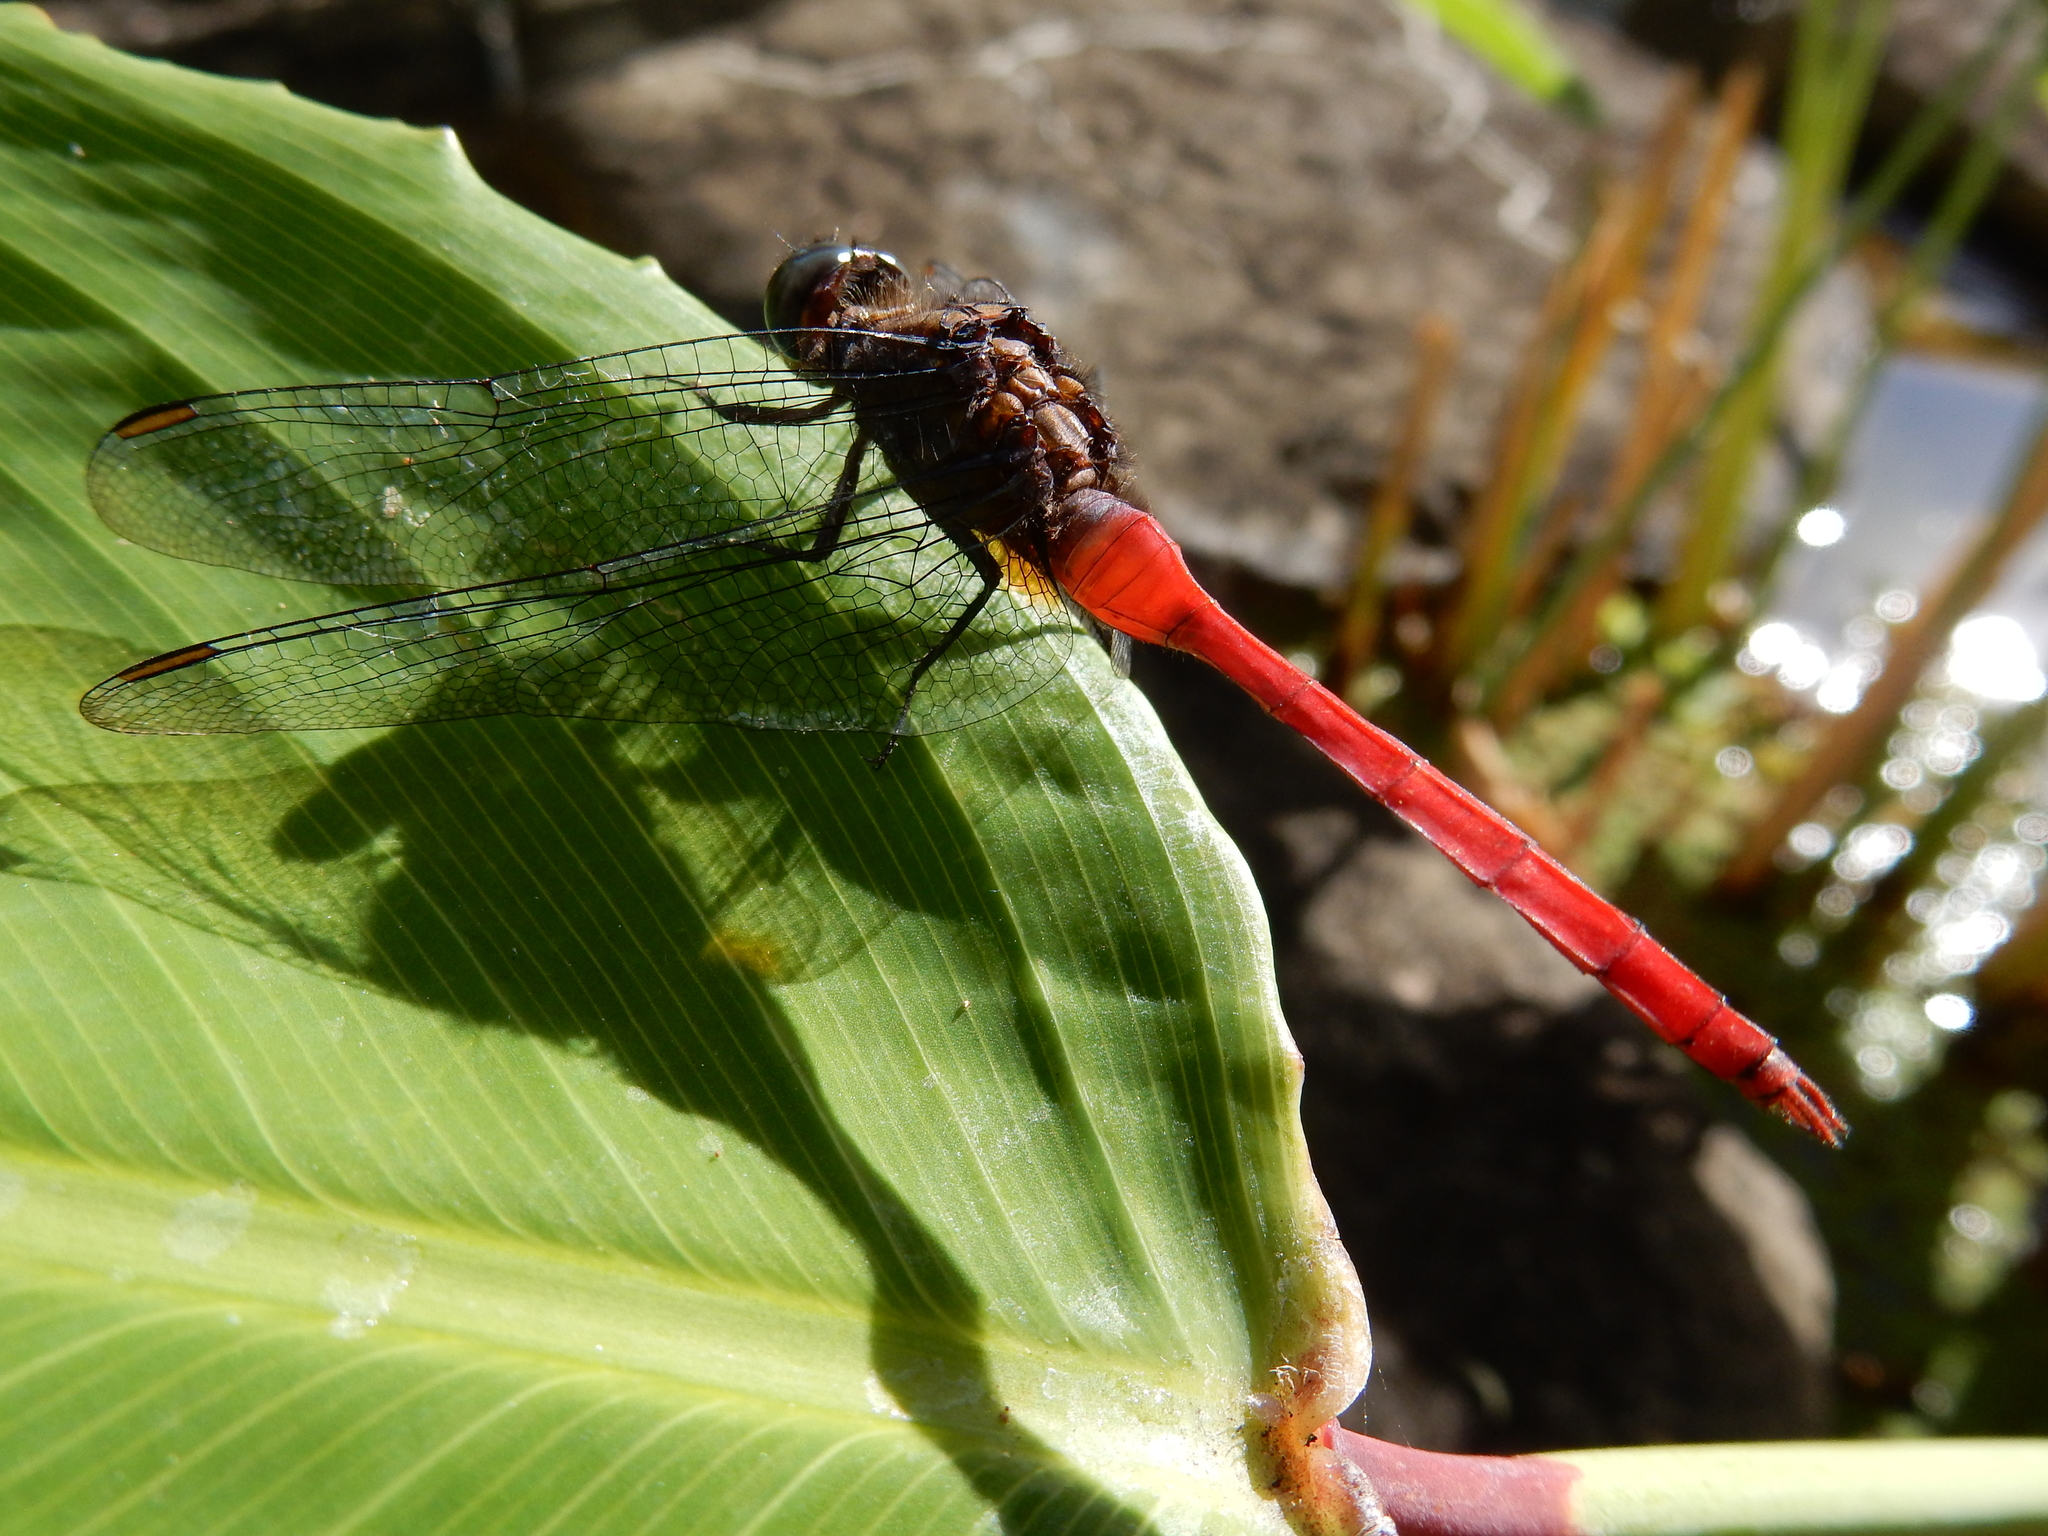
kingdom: Animalia
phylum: Arthropoda
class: Insecta
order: Odonata
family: Libellulidae
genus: Orthetrum
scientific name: Orthetrum villosovittatum
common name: Firery skimmer
